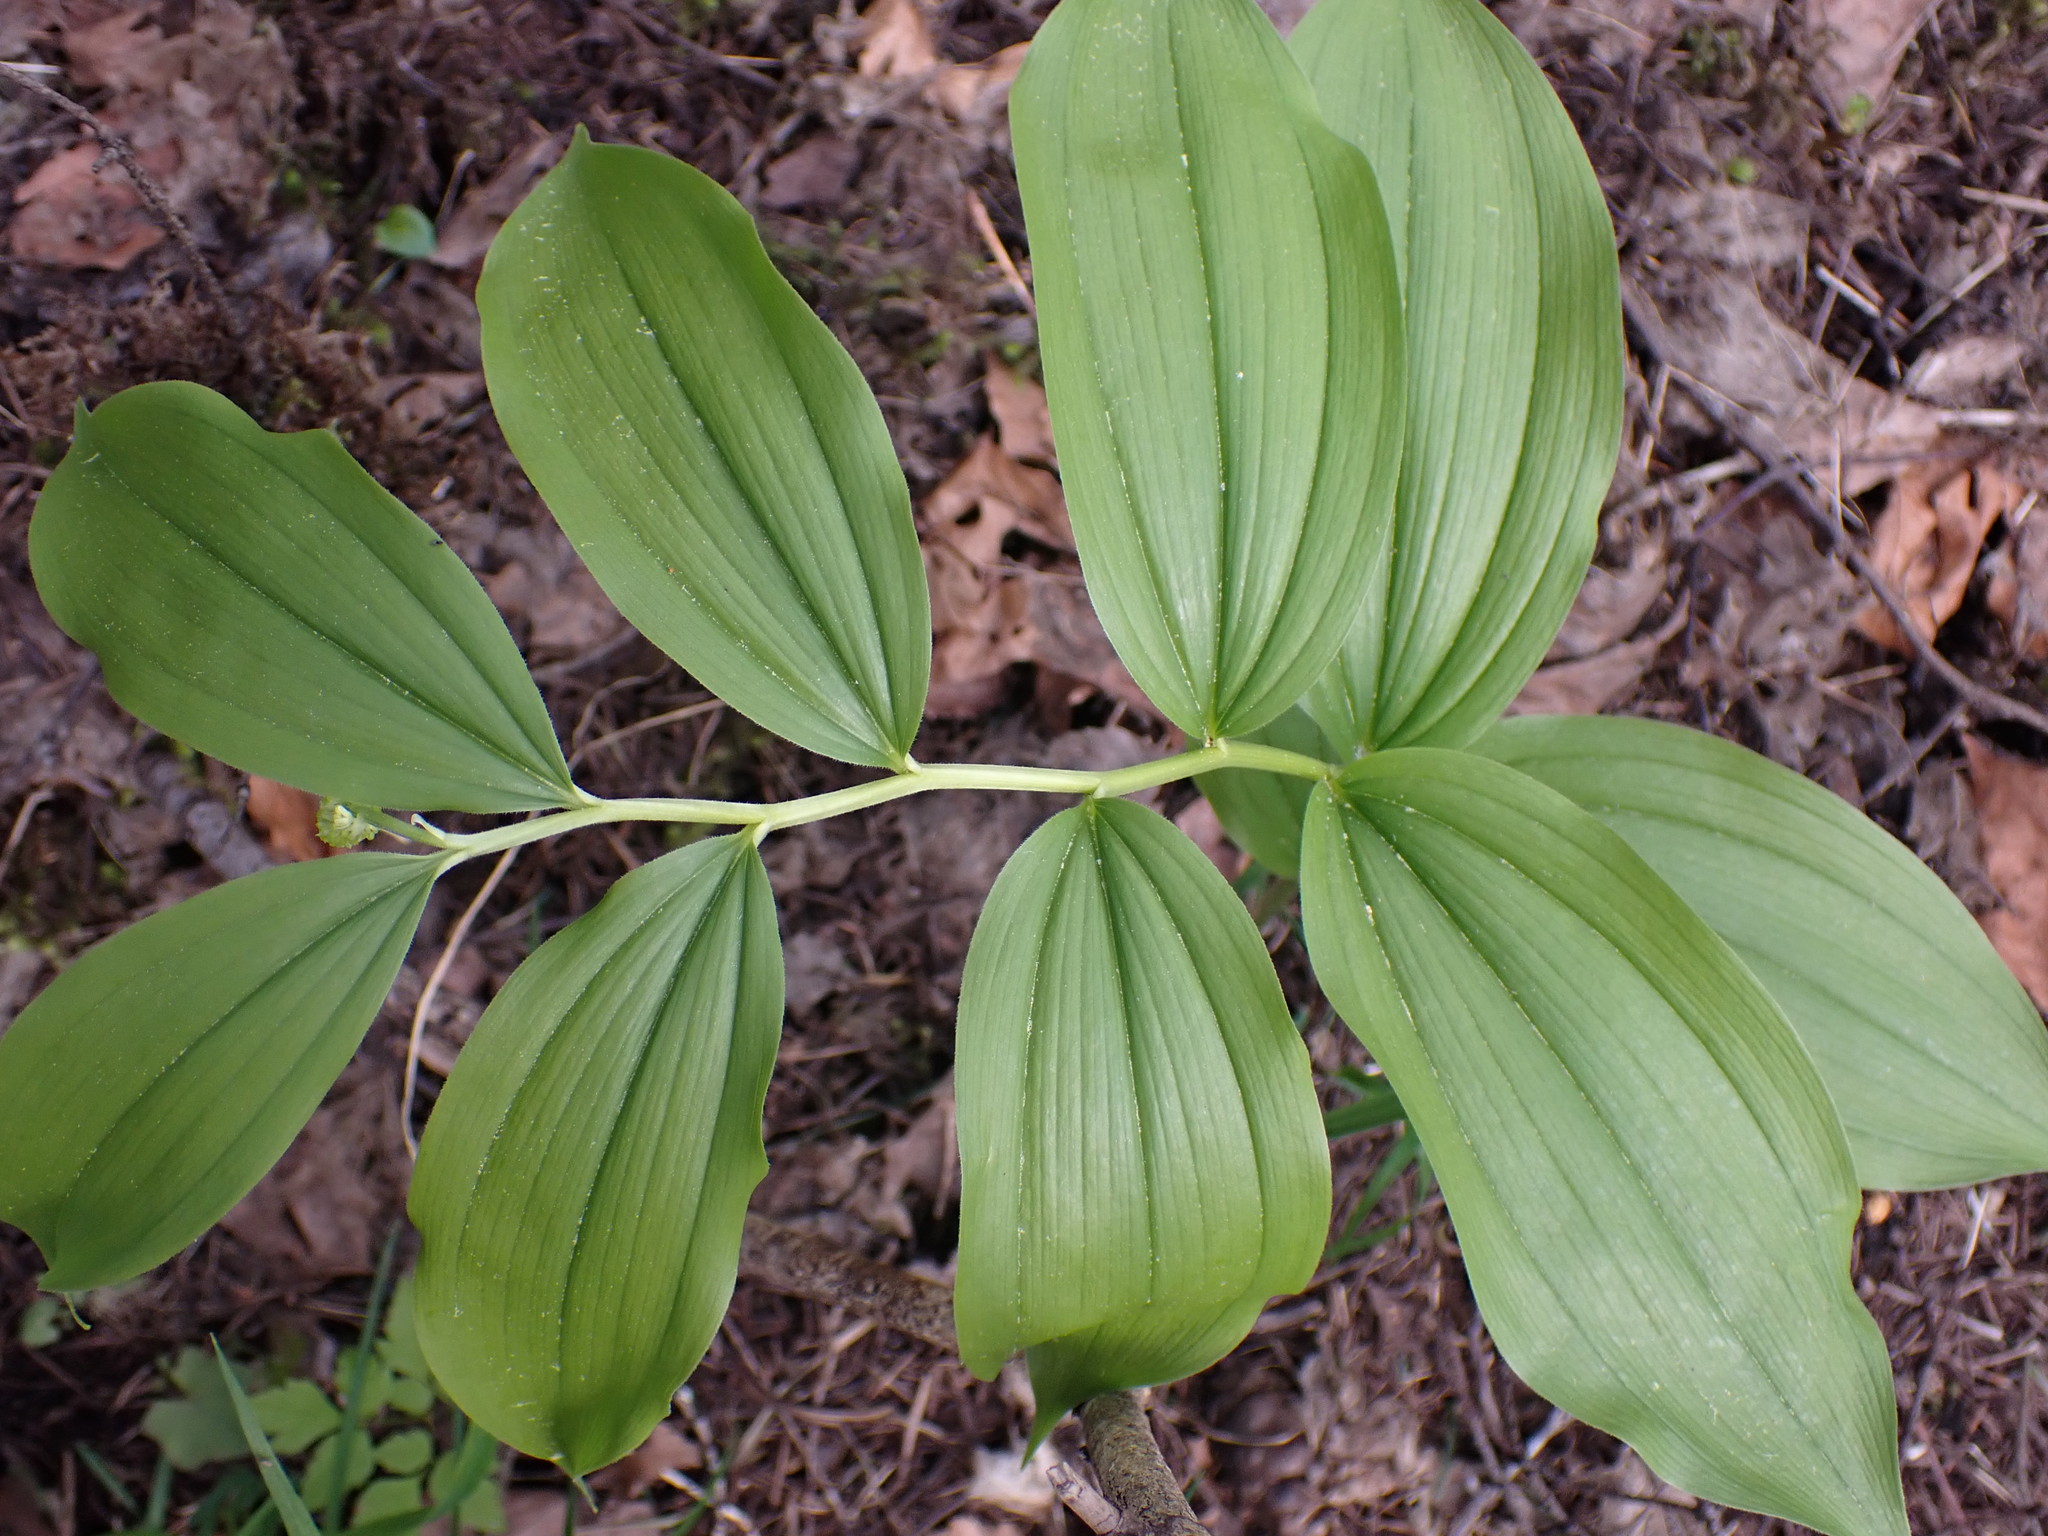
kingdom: Plantae
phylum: Tracheophyta
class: Liliopsida
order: Asparagales
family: Asparagaceae
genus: Maianthemum
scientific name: Maianthemum racemosum
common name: False spikenard
